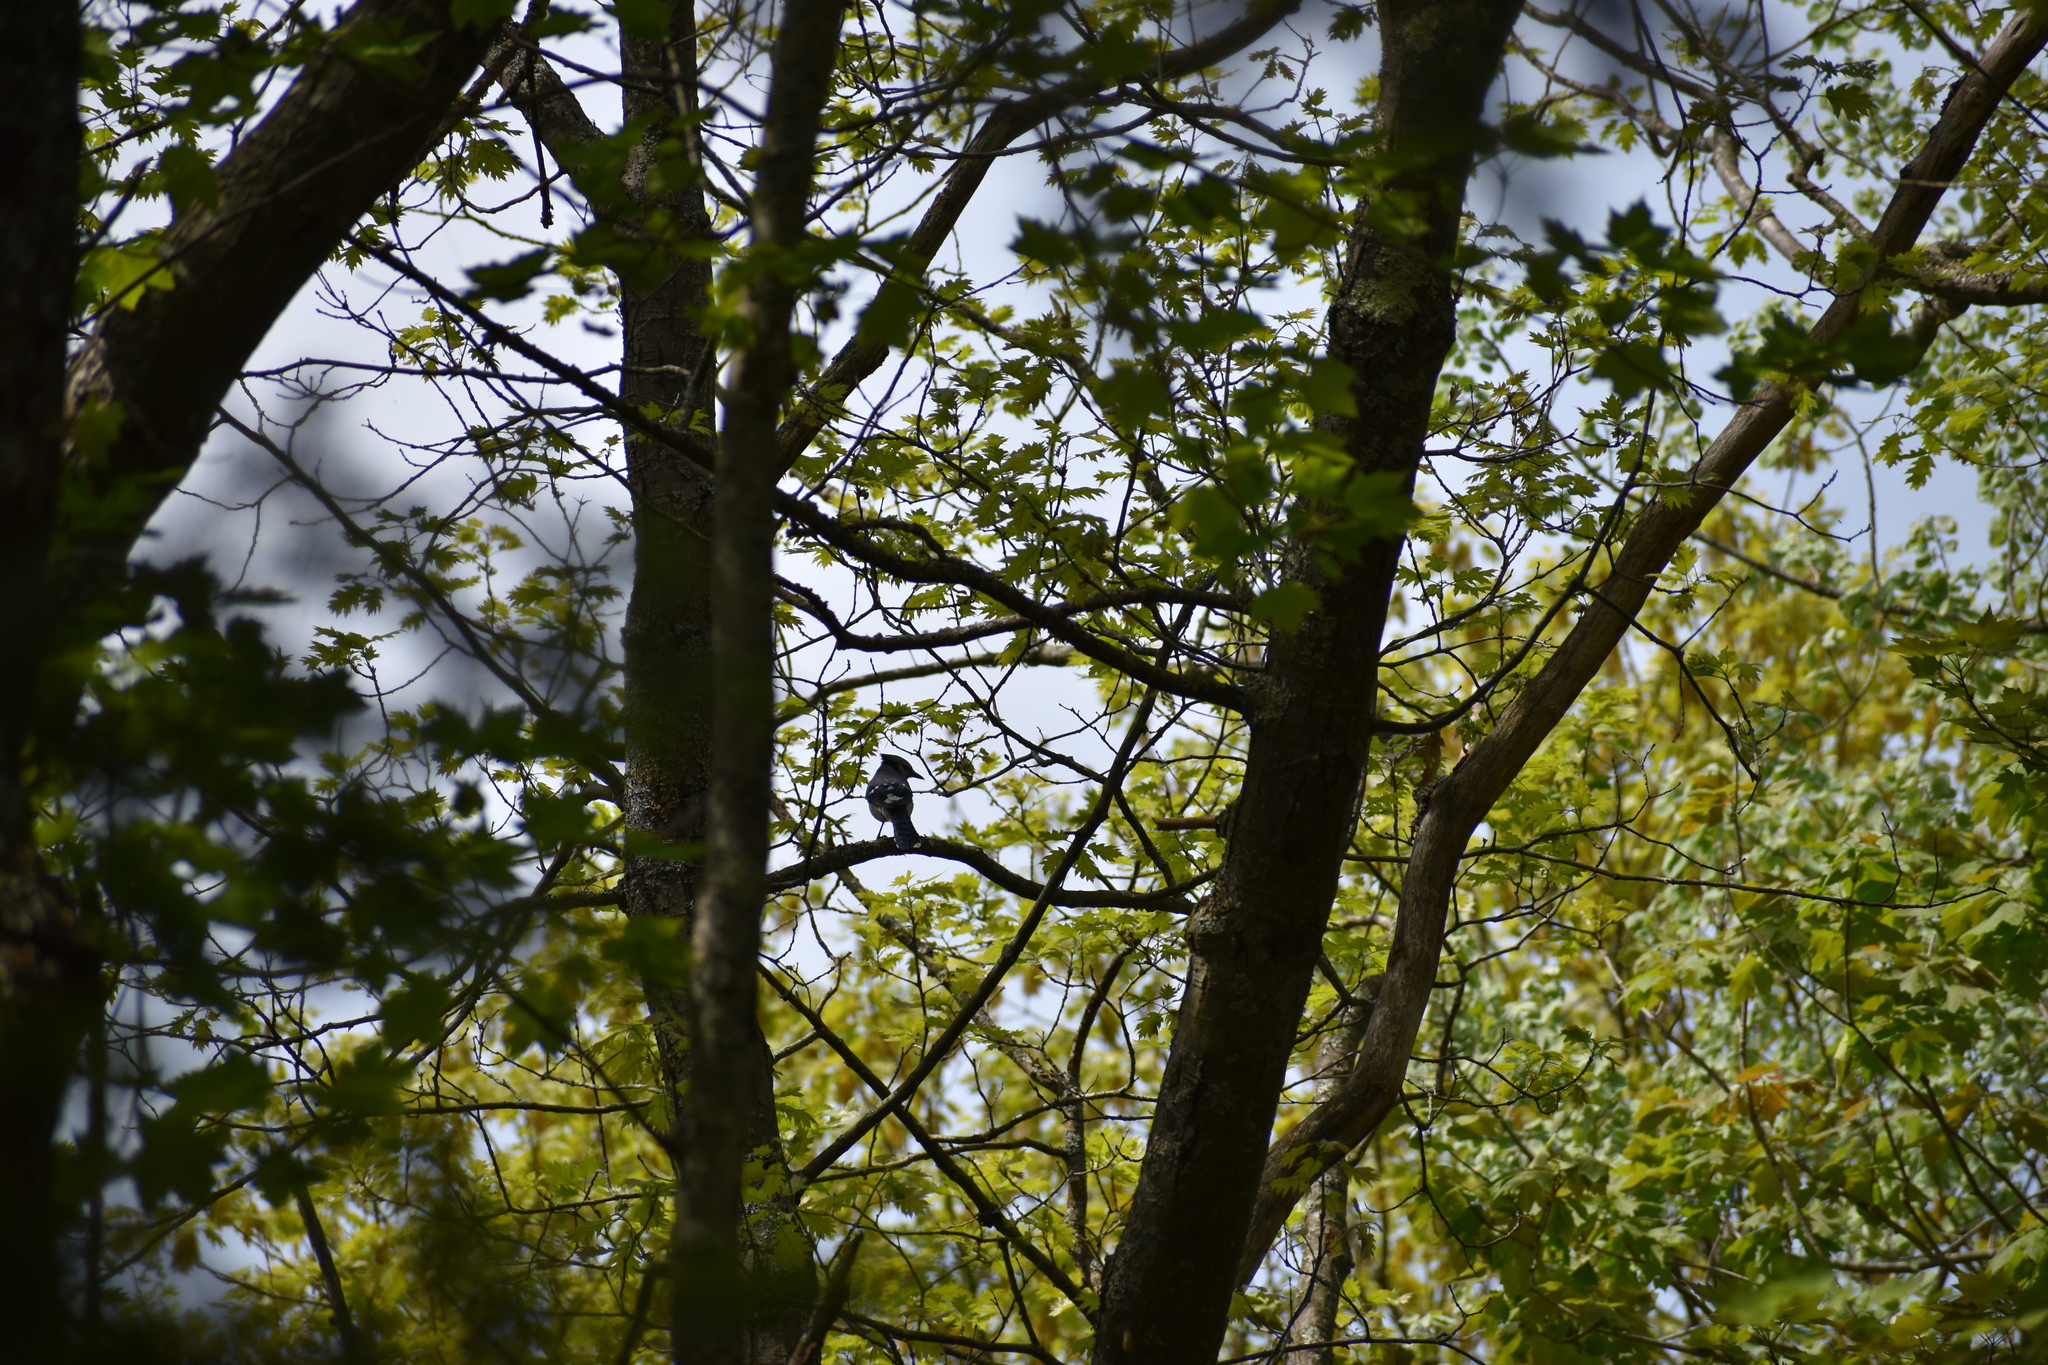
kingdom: Animalia
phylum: Chordata
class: Aves
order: Passeriformes
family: Corvidae
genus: Cyanocitta
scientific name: Cyanocitta cristata
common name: Blue jay
